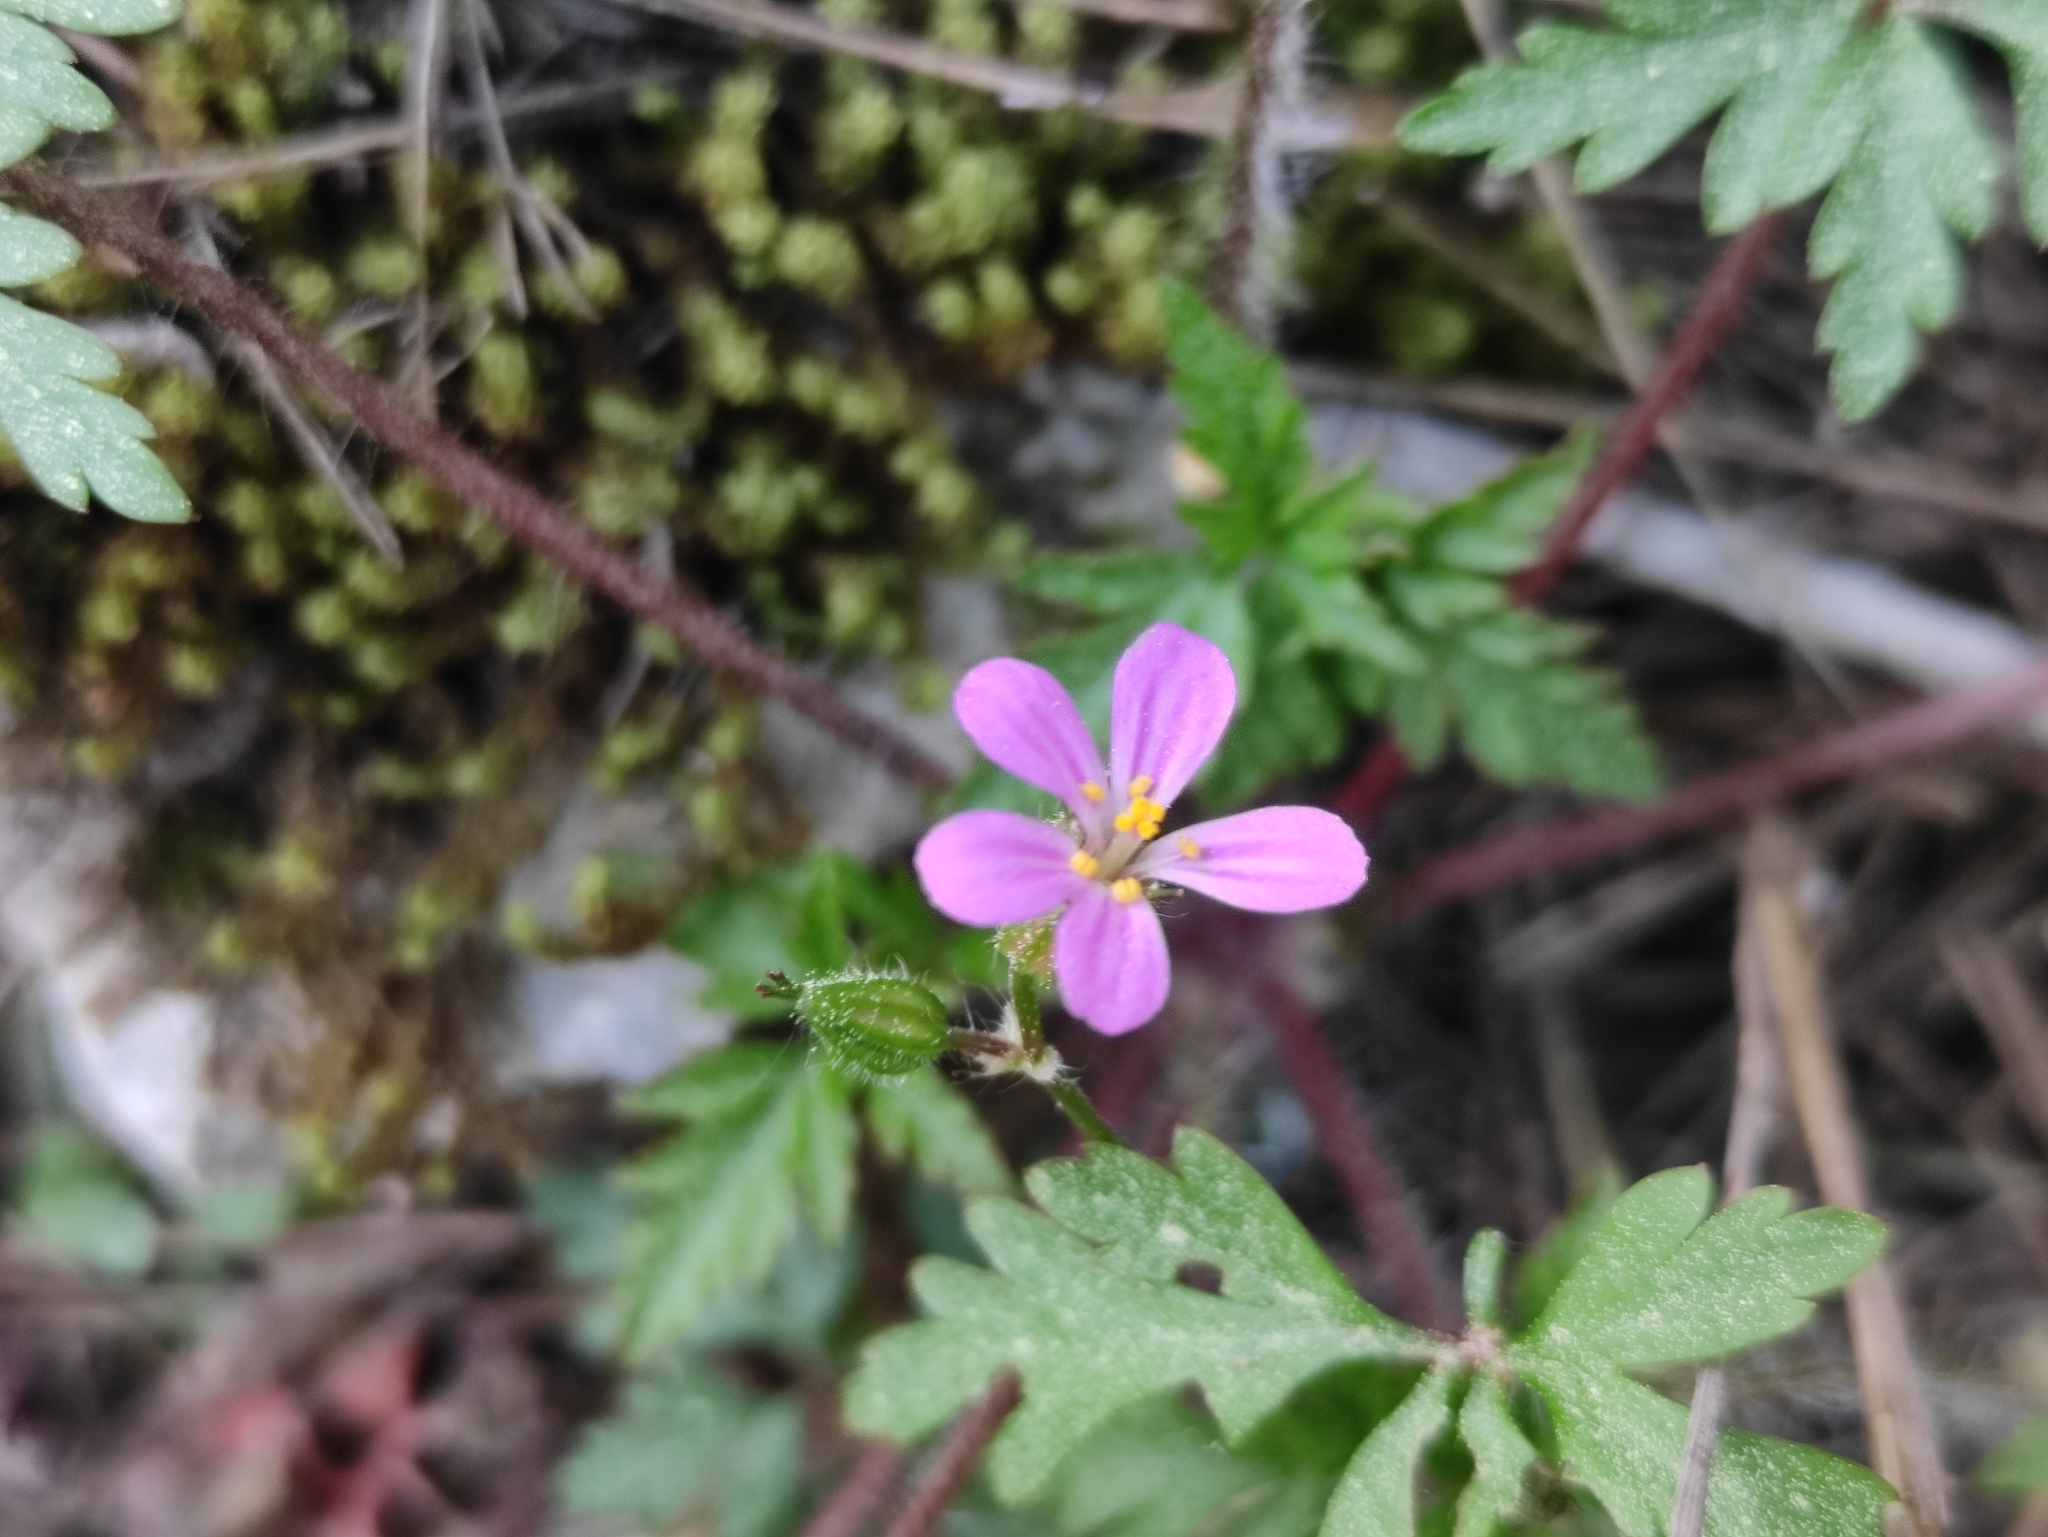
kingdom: Plantae
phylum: Tracheophyta
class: Magnoliopsida
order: Geraniales
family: Geraniaceae
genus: Geranium
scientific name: Geranium purpureum
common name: Little-robin
